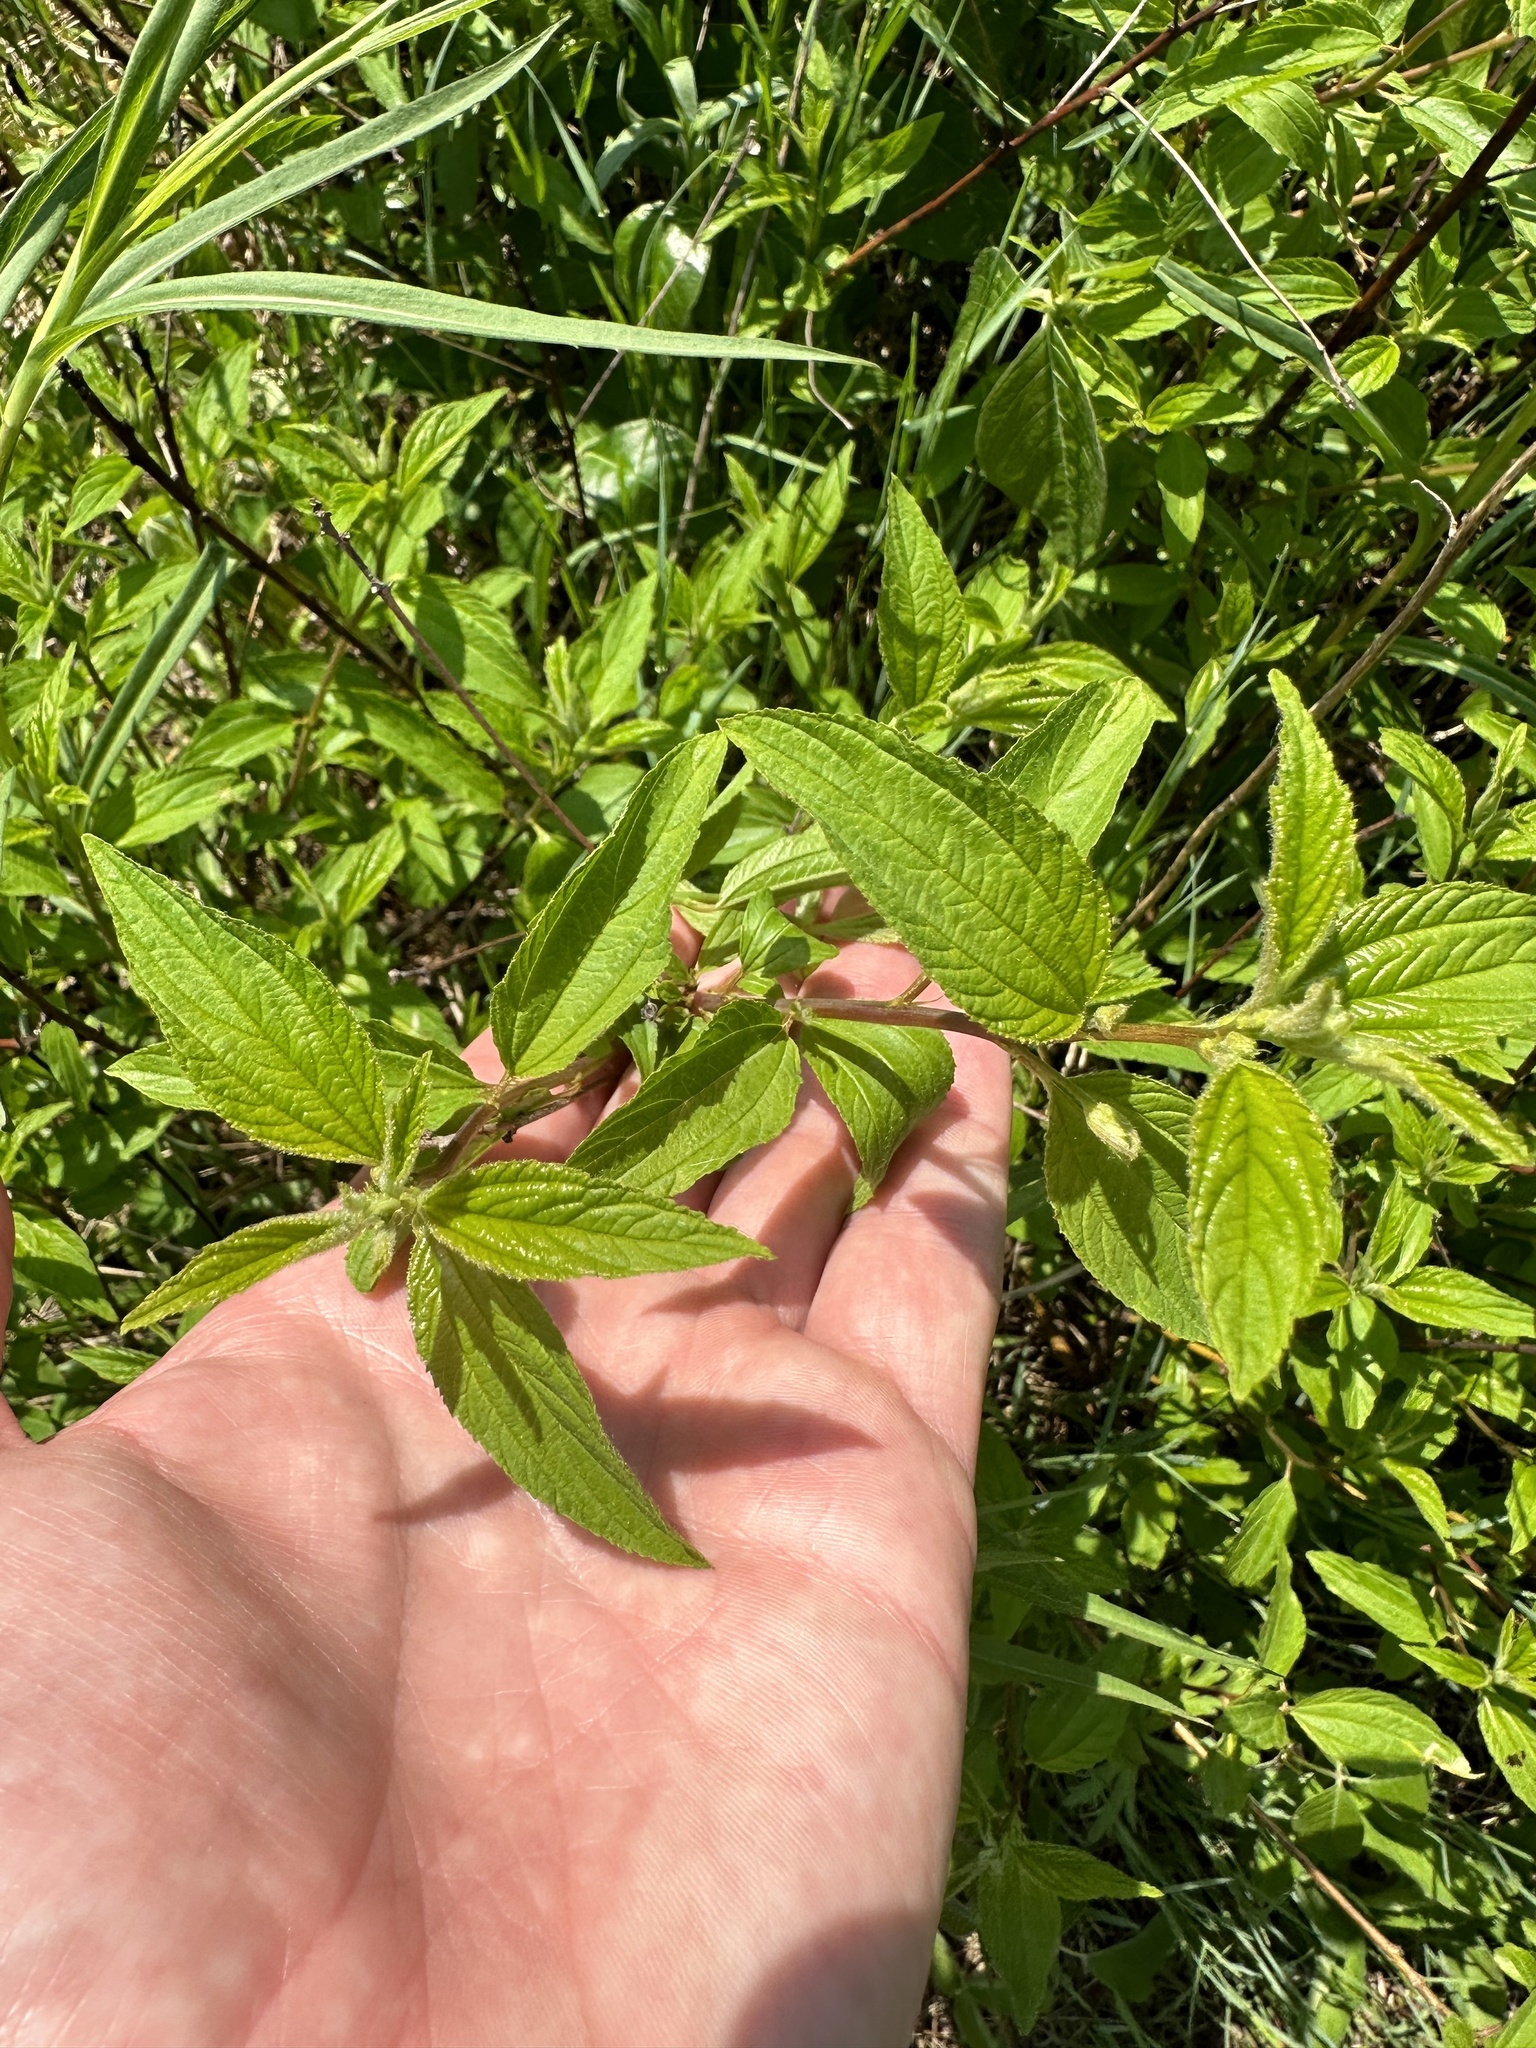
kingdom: Plantae
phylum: Tracheophyta
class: Magnoliopsida
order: Rosales
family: Rhamnaceae
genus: Ceanothus
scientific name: Ceanothus americanus
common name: Redroot
